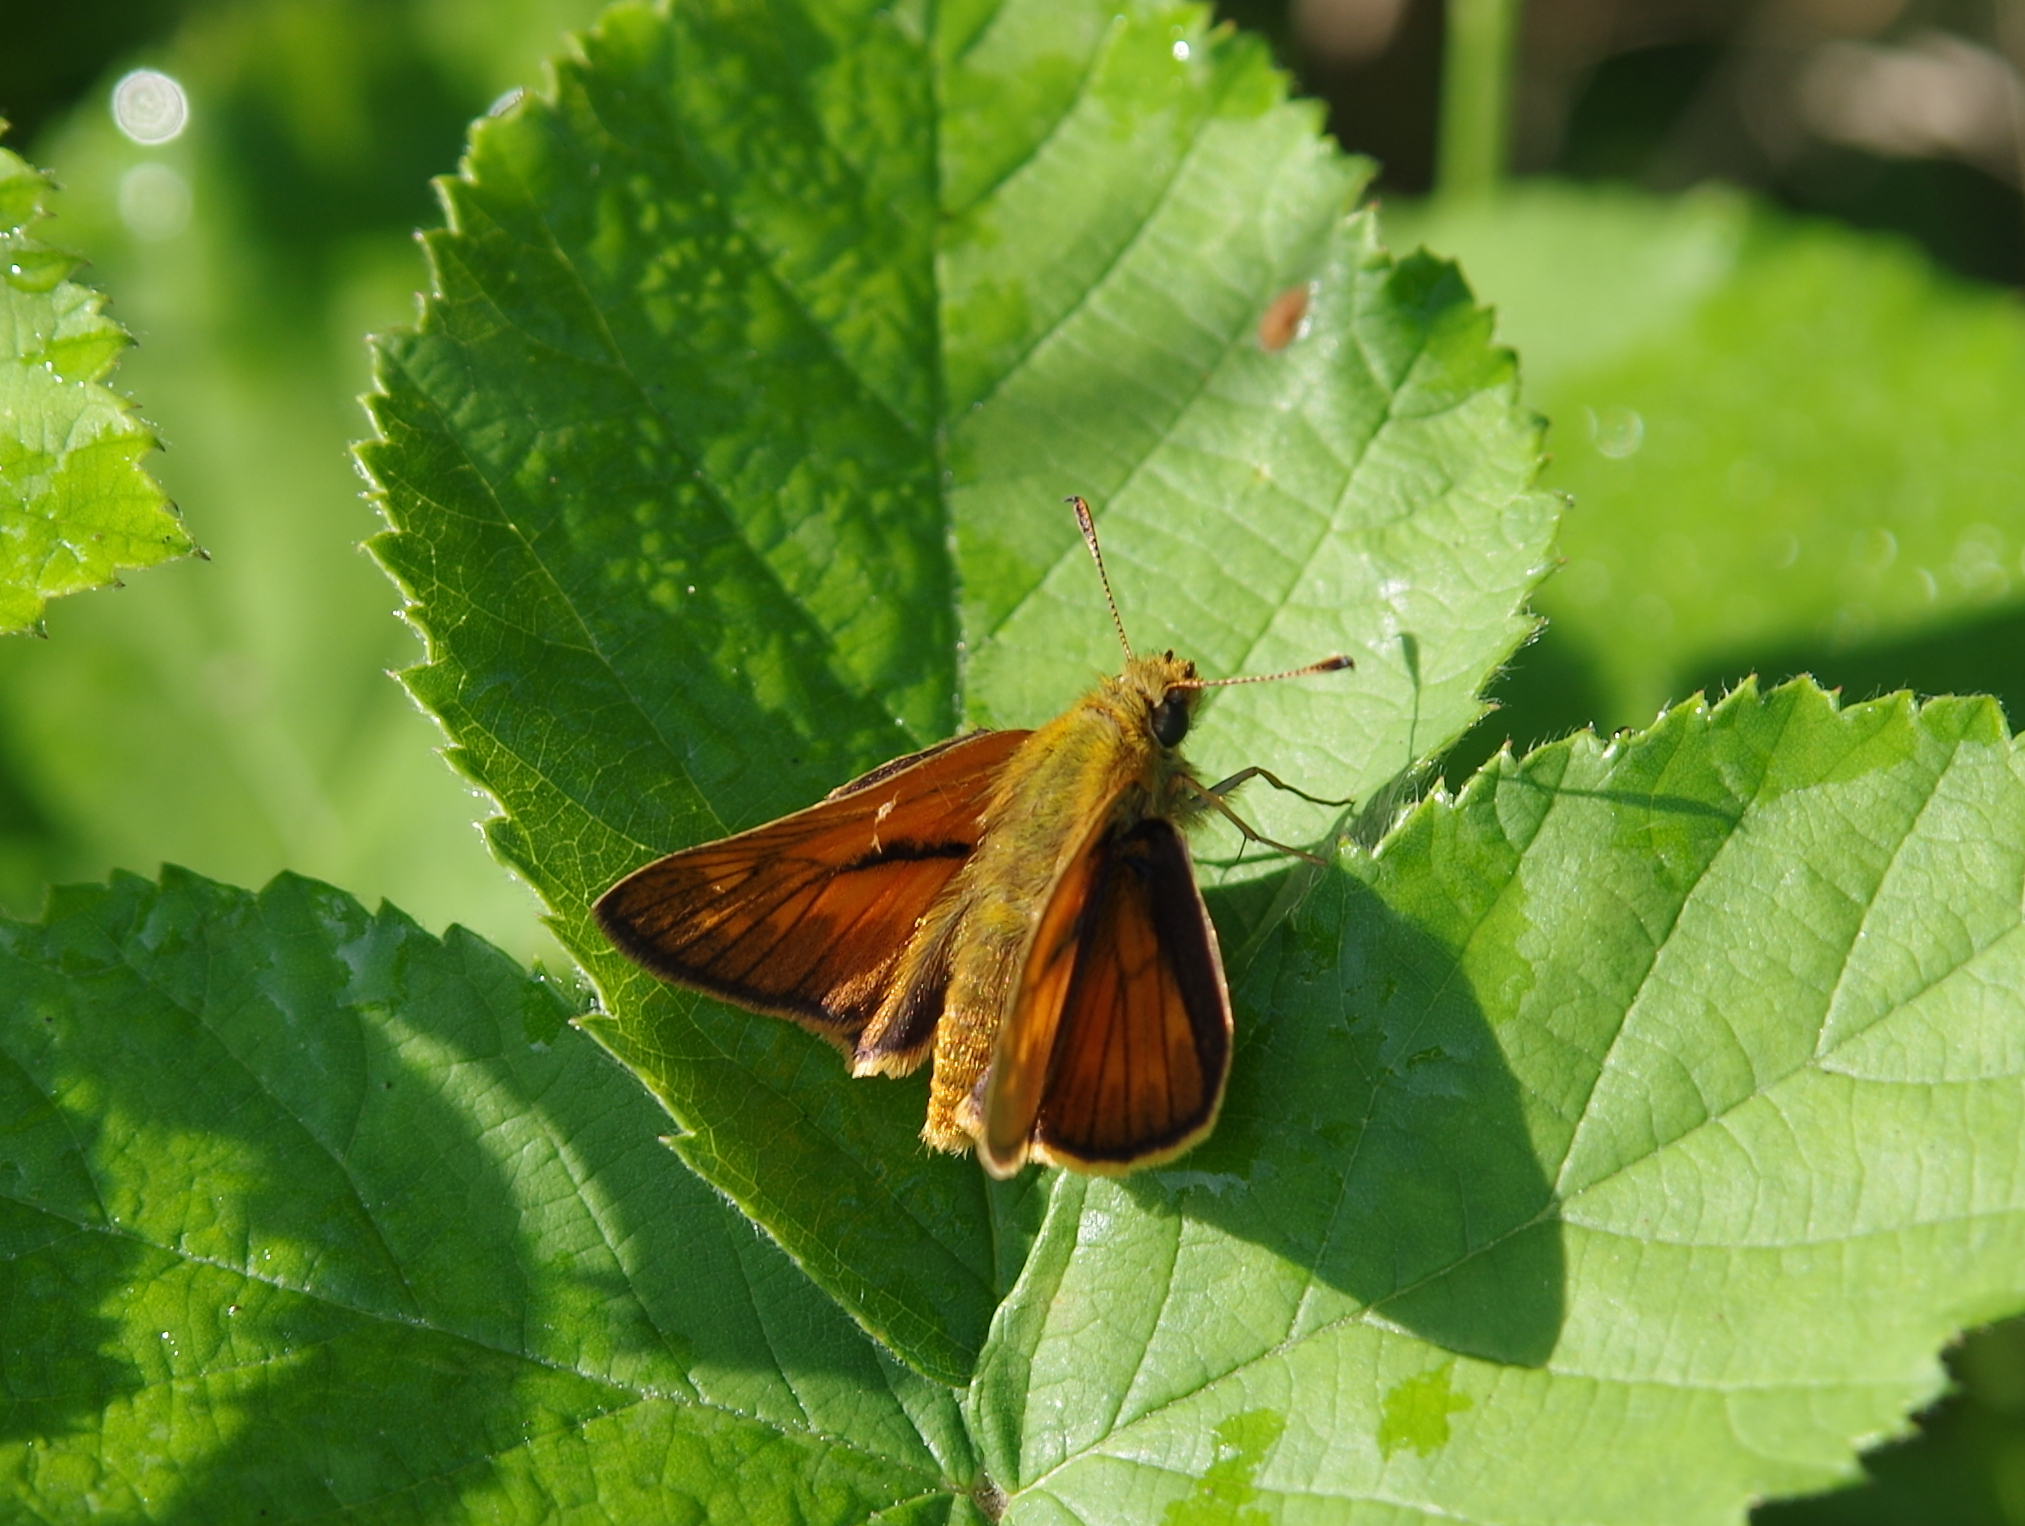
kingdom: Animalia
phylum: Arthropoda
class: Insecta
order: Lepidoptera
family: Hesperiidae
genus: Ochlodes
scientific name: Ochlodes venata
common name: Large skipper
